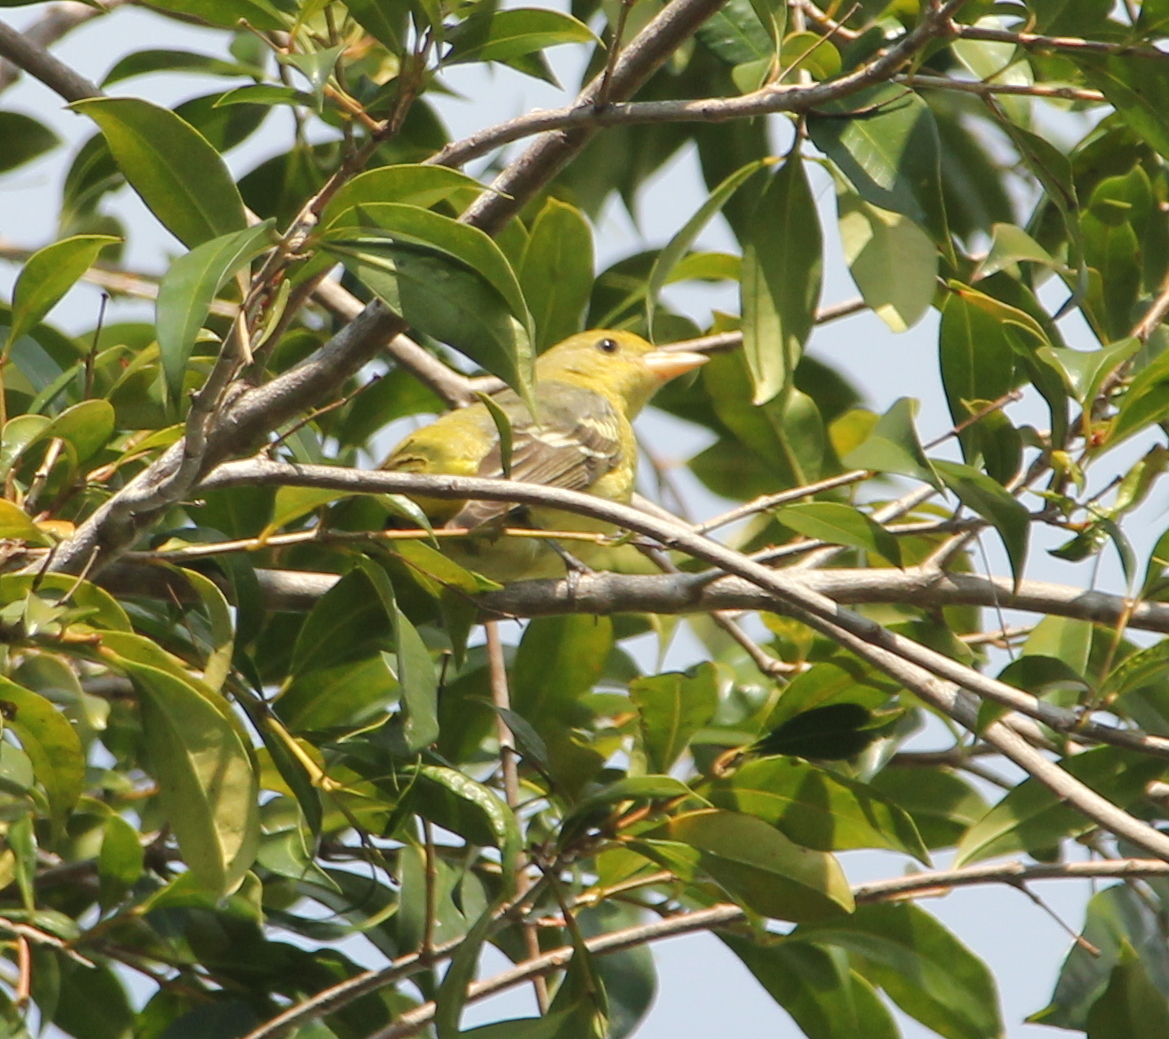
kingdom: Animalia
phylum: Chordata
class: Aves
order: Passeriformes
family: Cardinalidae
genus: Piranga
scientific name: Piranga ludoviciana
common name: Western tanager
